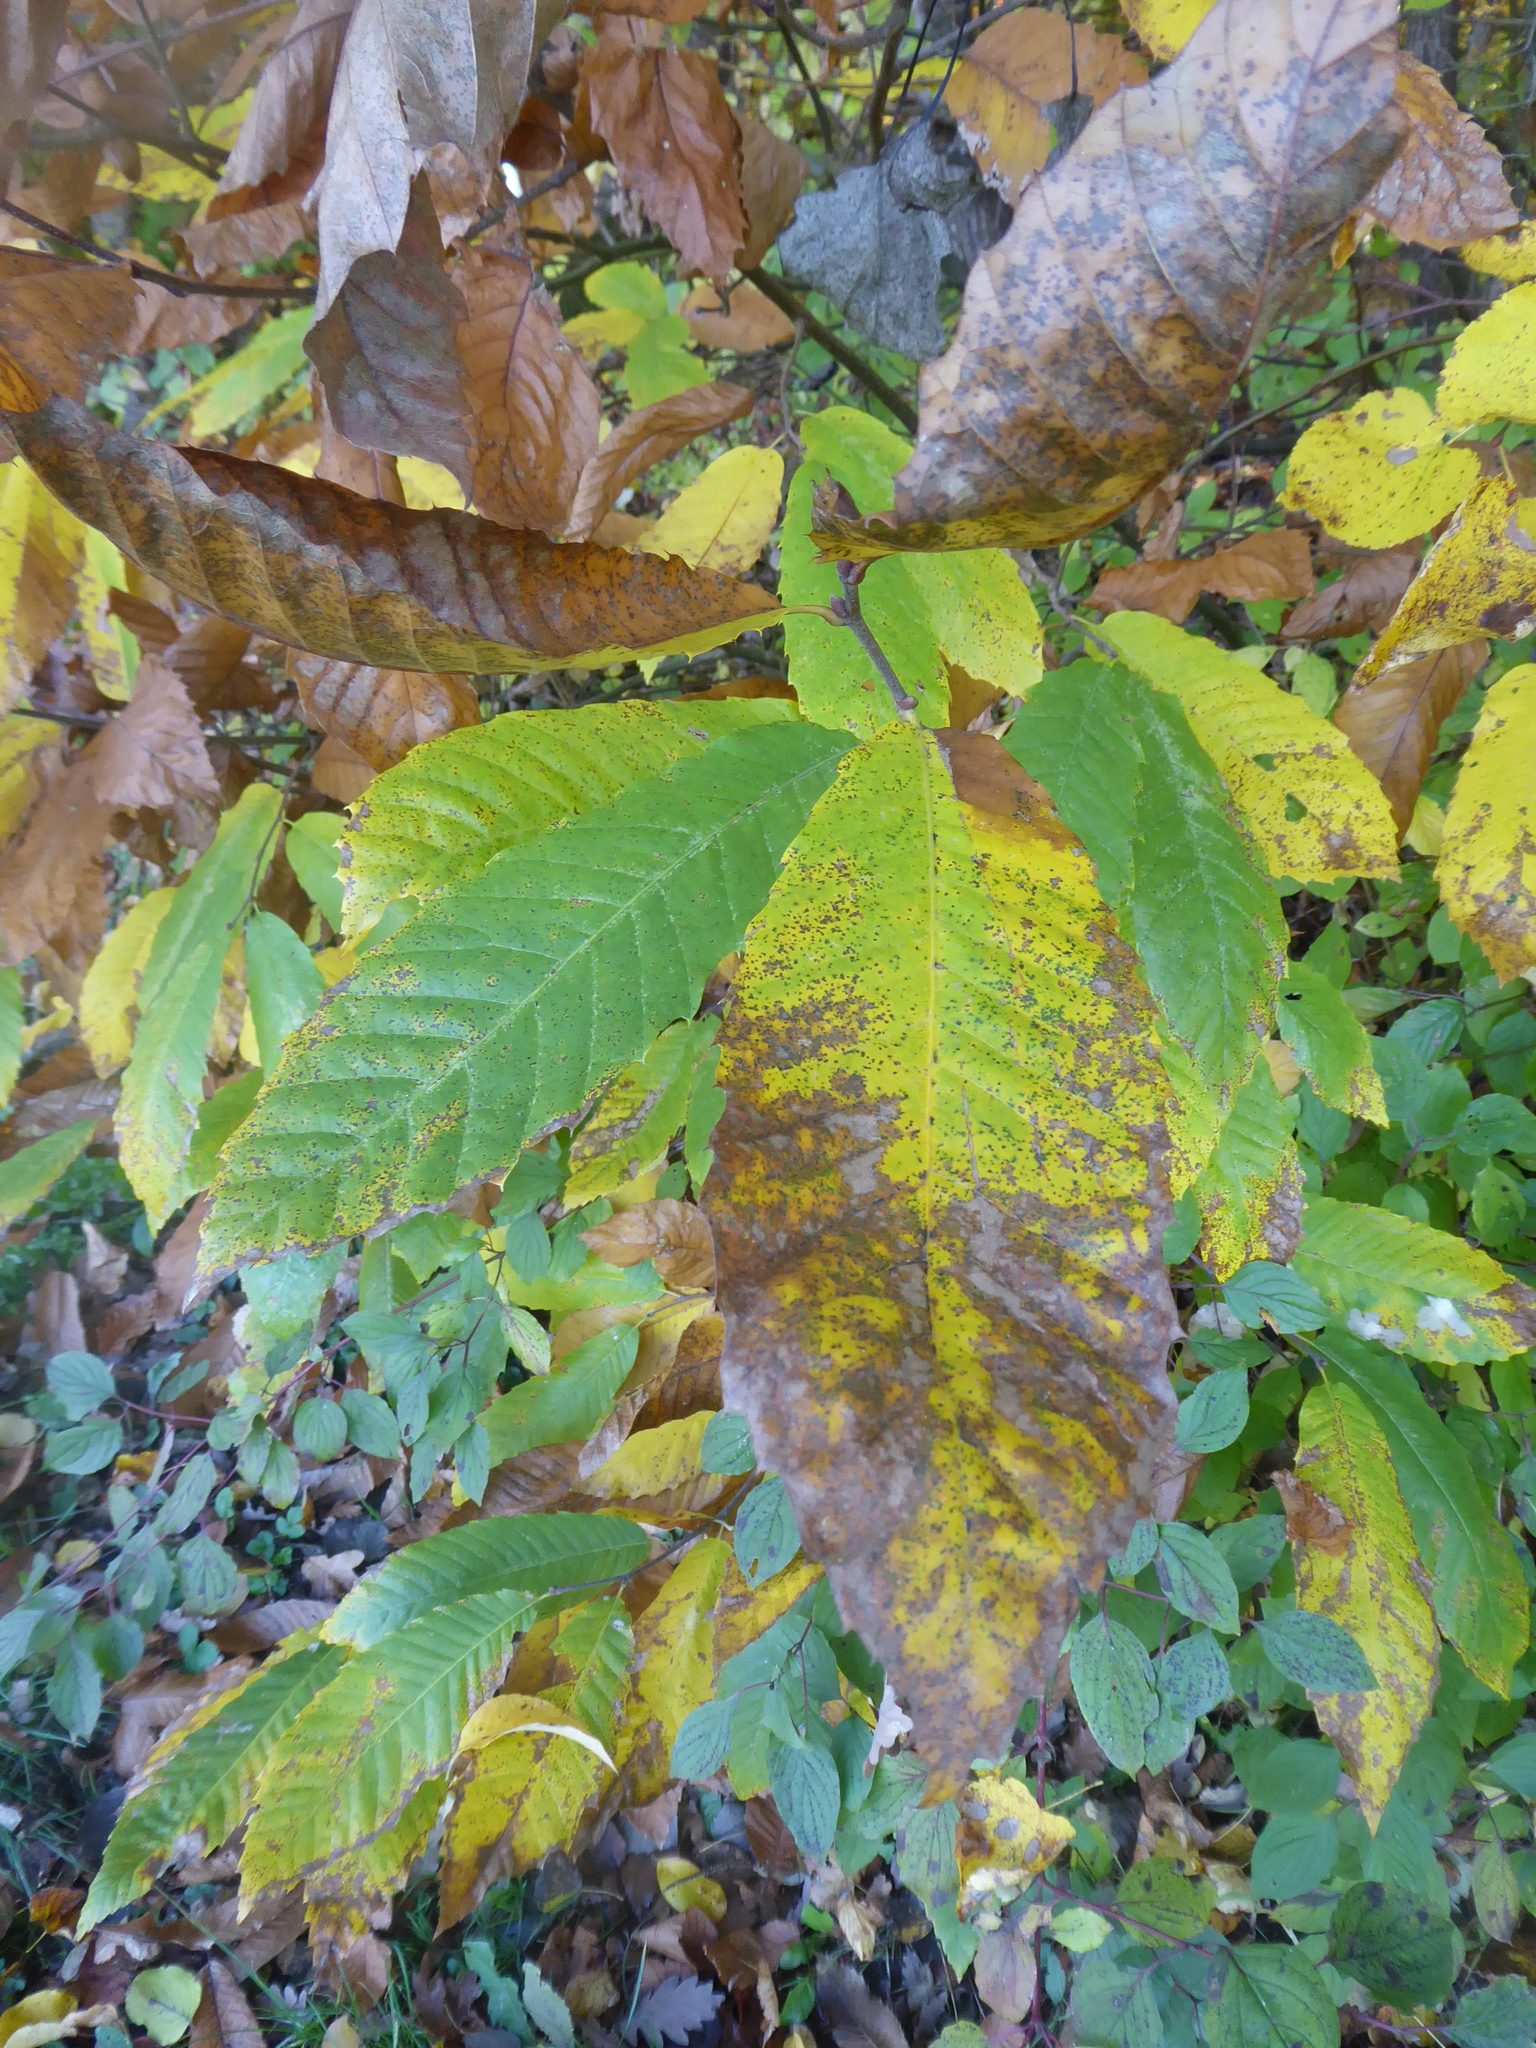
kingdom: Plantae
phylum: Tracheophyta
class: Magnoliopsida
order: Fagales
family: Fagaceae
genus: Castanea
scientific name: Castanea sativa
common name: Sweet chestnut
